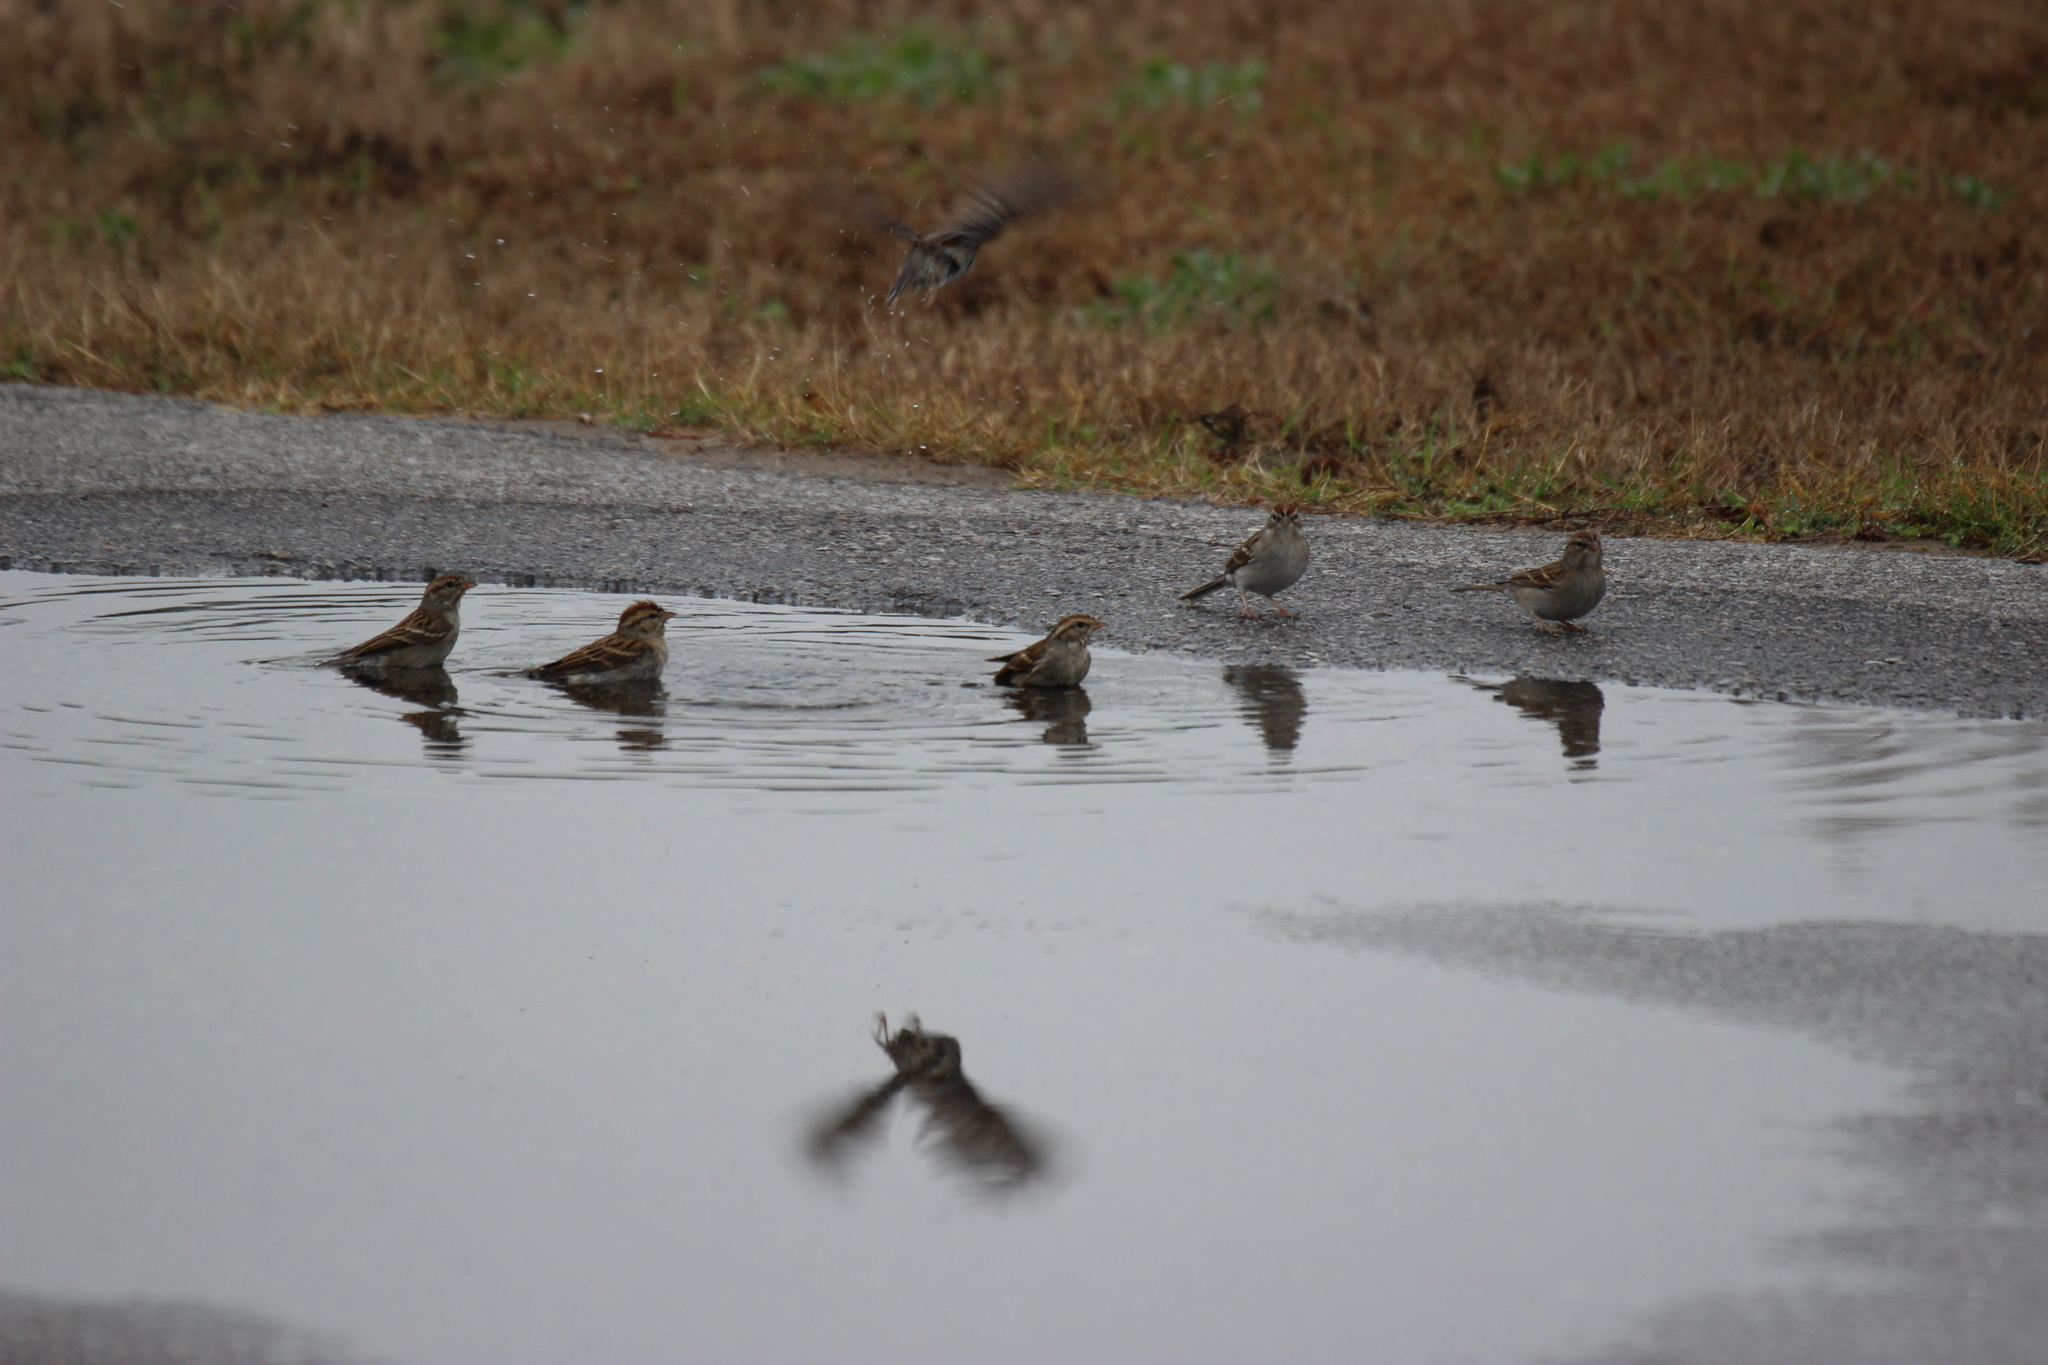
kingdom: Animalia
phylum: Chordata
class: Aves
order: Passeriformes
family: Passerellidae
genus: Spizella
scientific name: Spizella passerina
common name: Chipping sparrow
